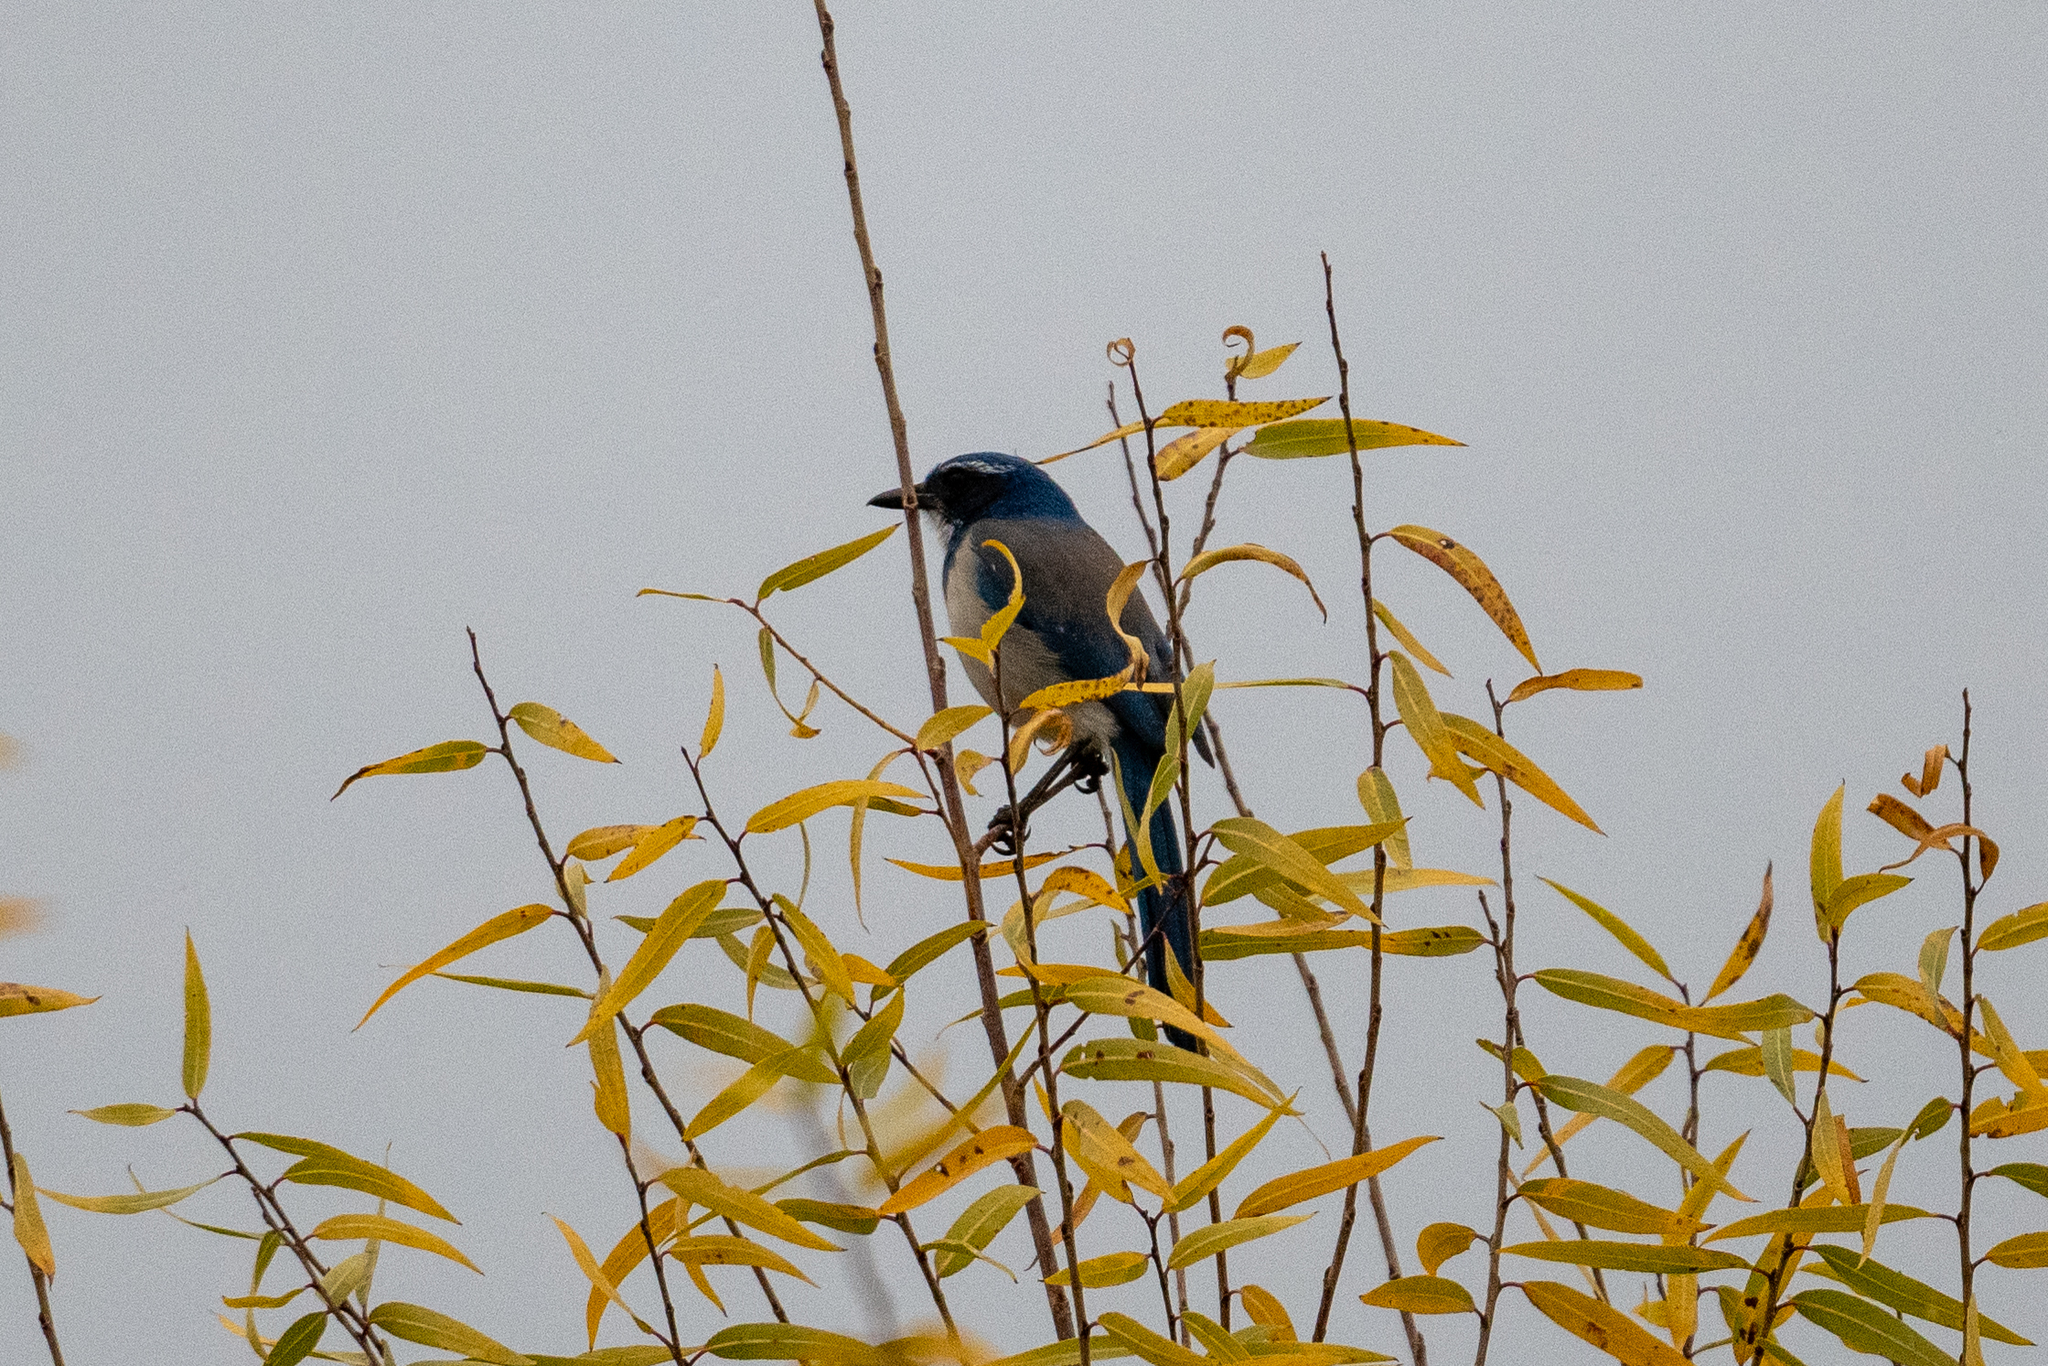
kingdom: Animalia
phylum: Chordata
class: Aves
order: Passeriformes
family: Corvidae
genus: Aphelocoma
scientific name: Aphelocoma californica
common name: California scrub-jay
